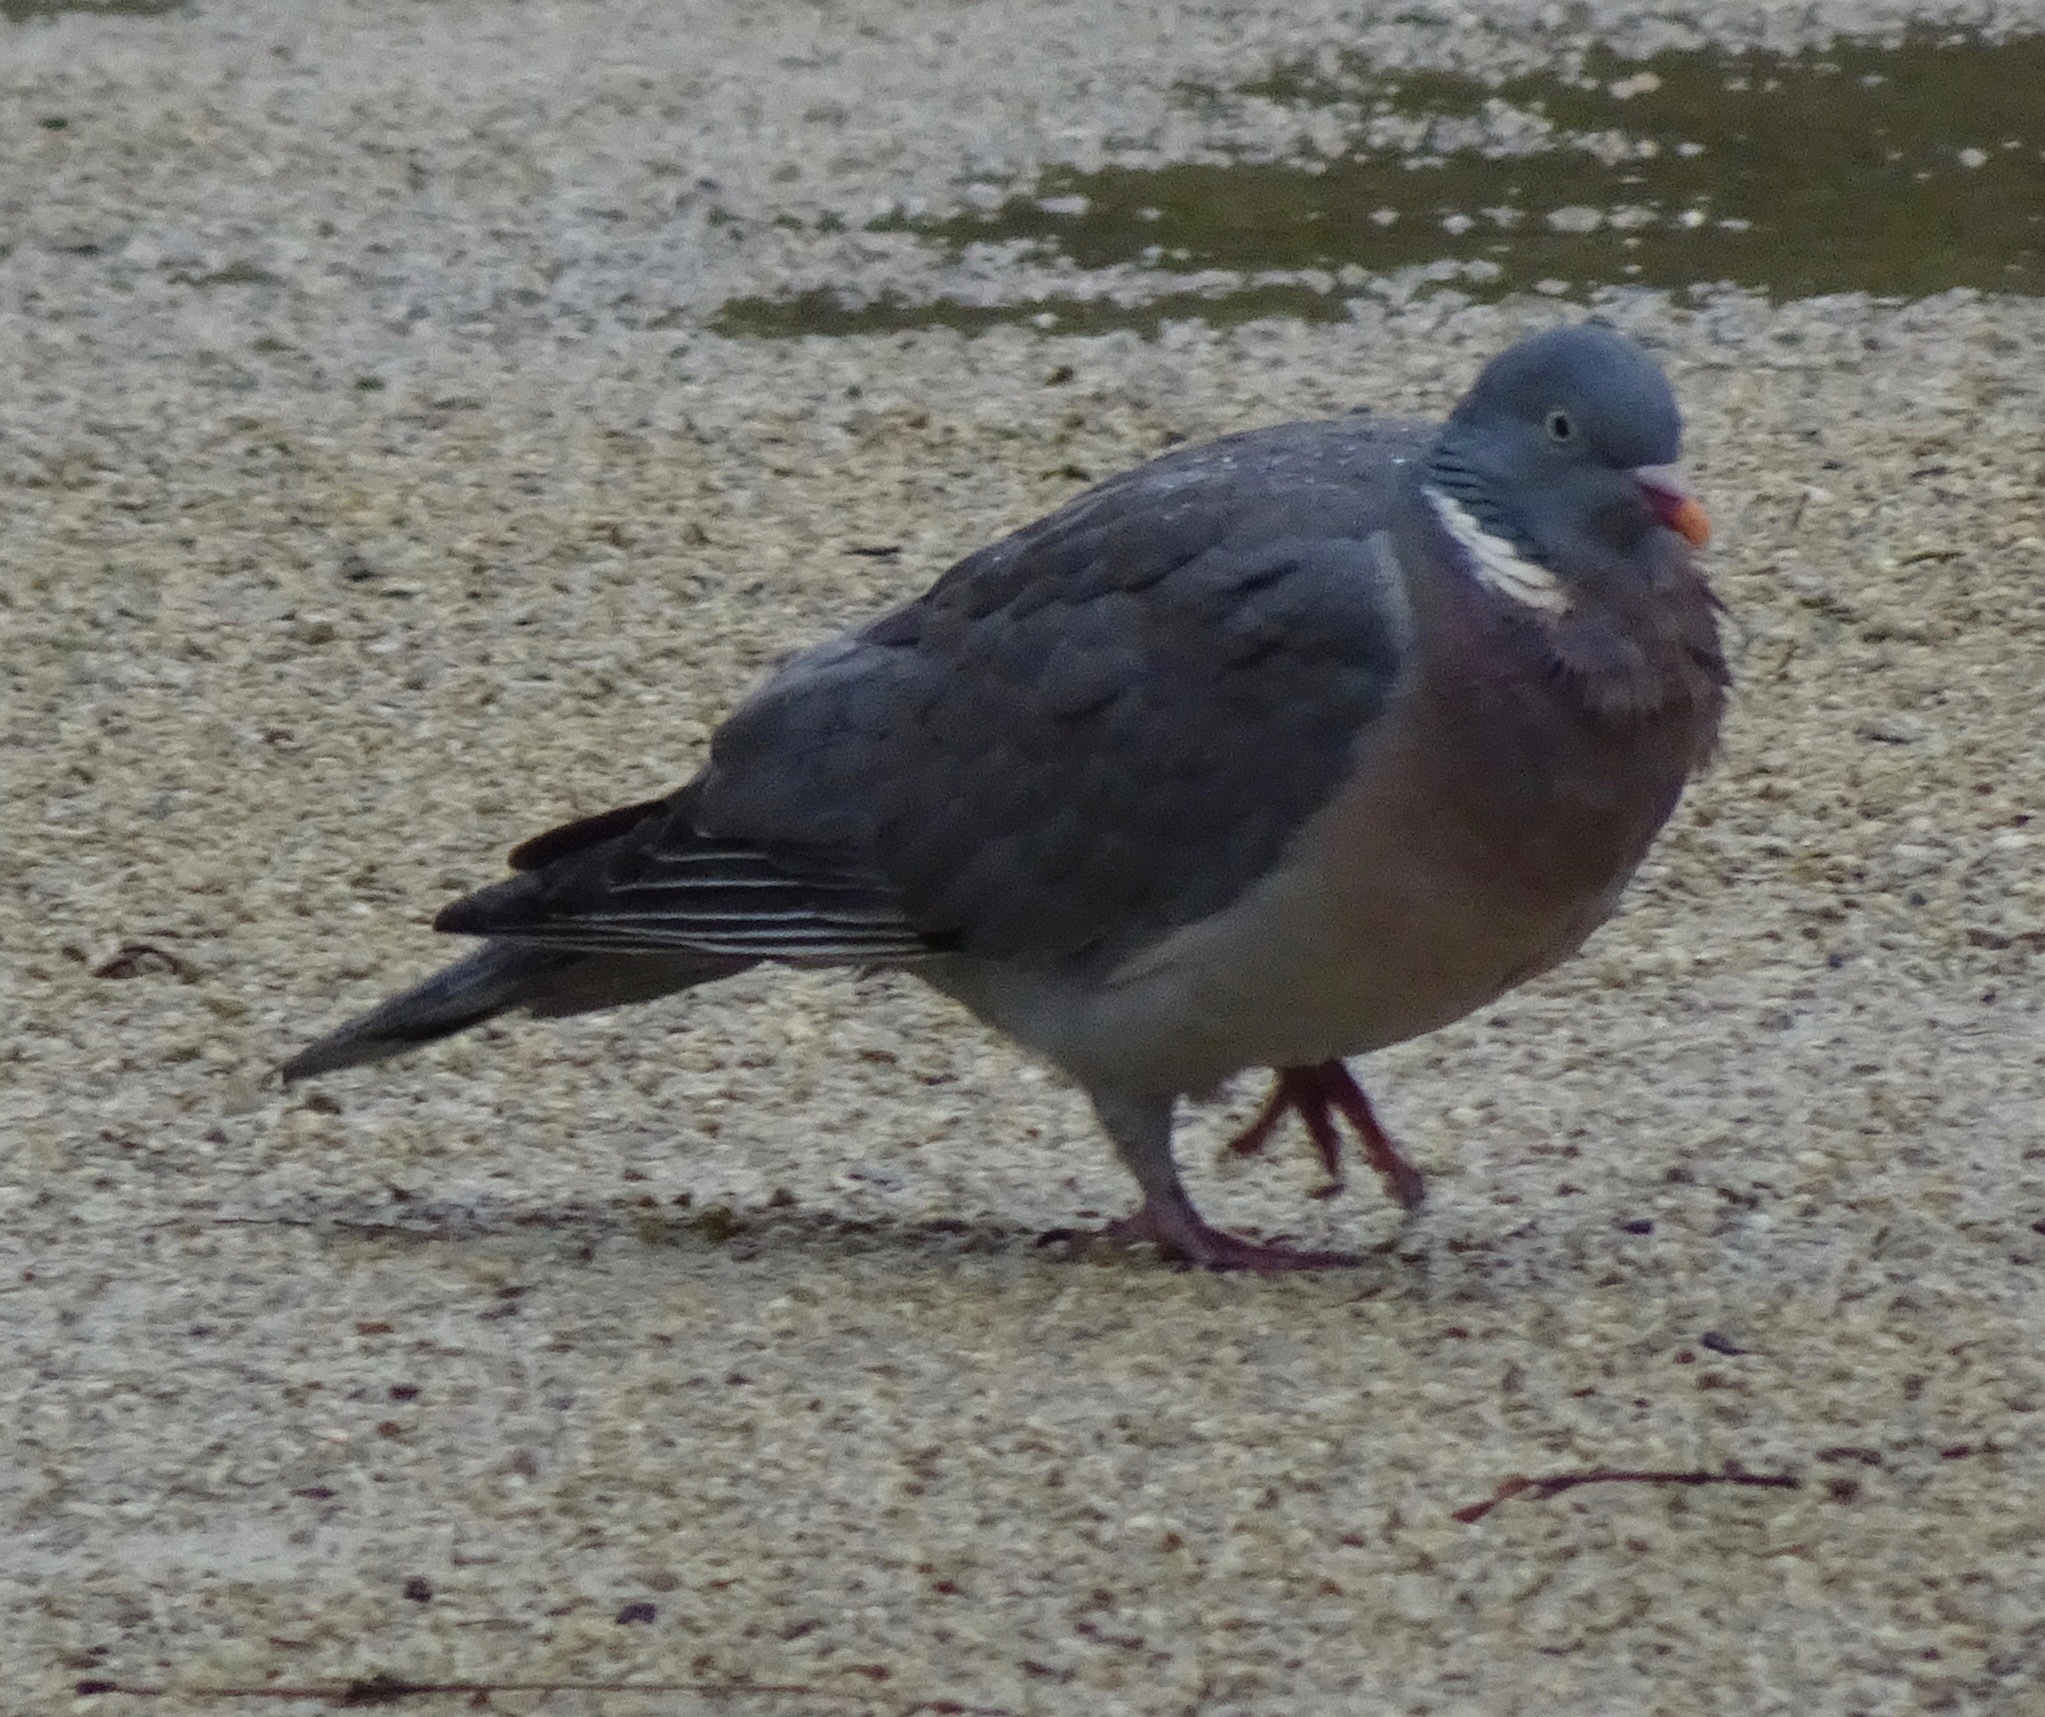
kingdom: Animalia
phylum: Chordata
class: Aves
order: Columbiformes
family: Columbidae
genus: Columba
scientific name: Columba palumbus
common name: Common wood pigeon
